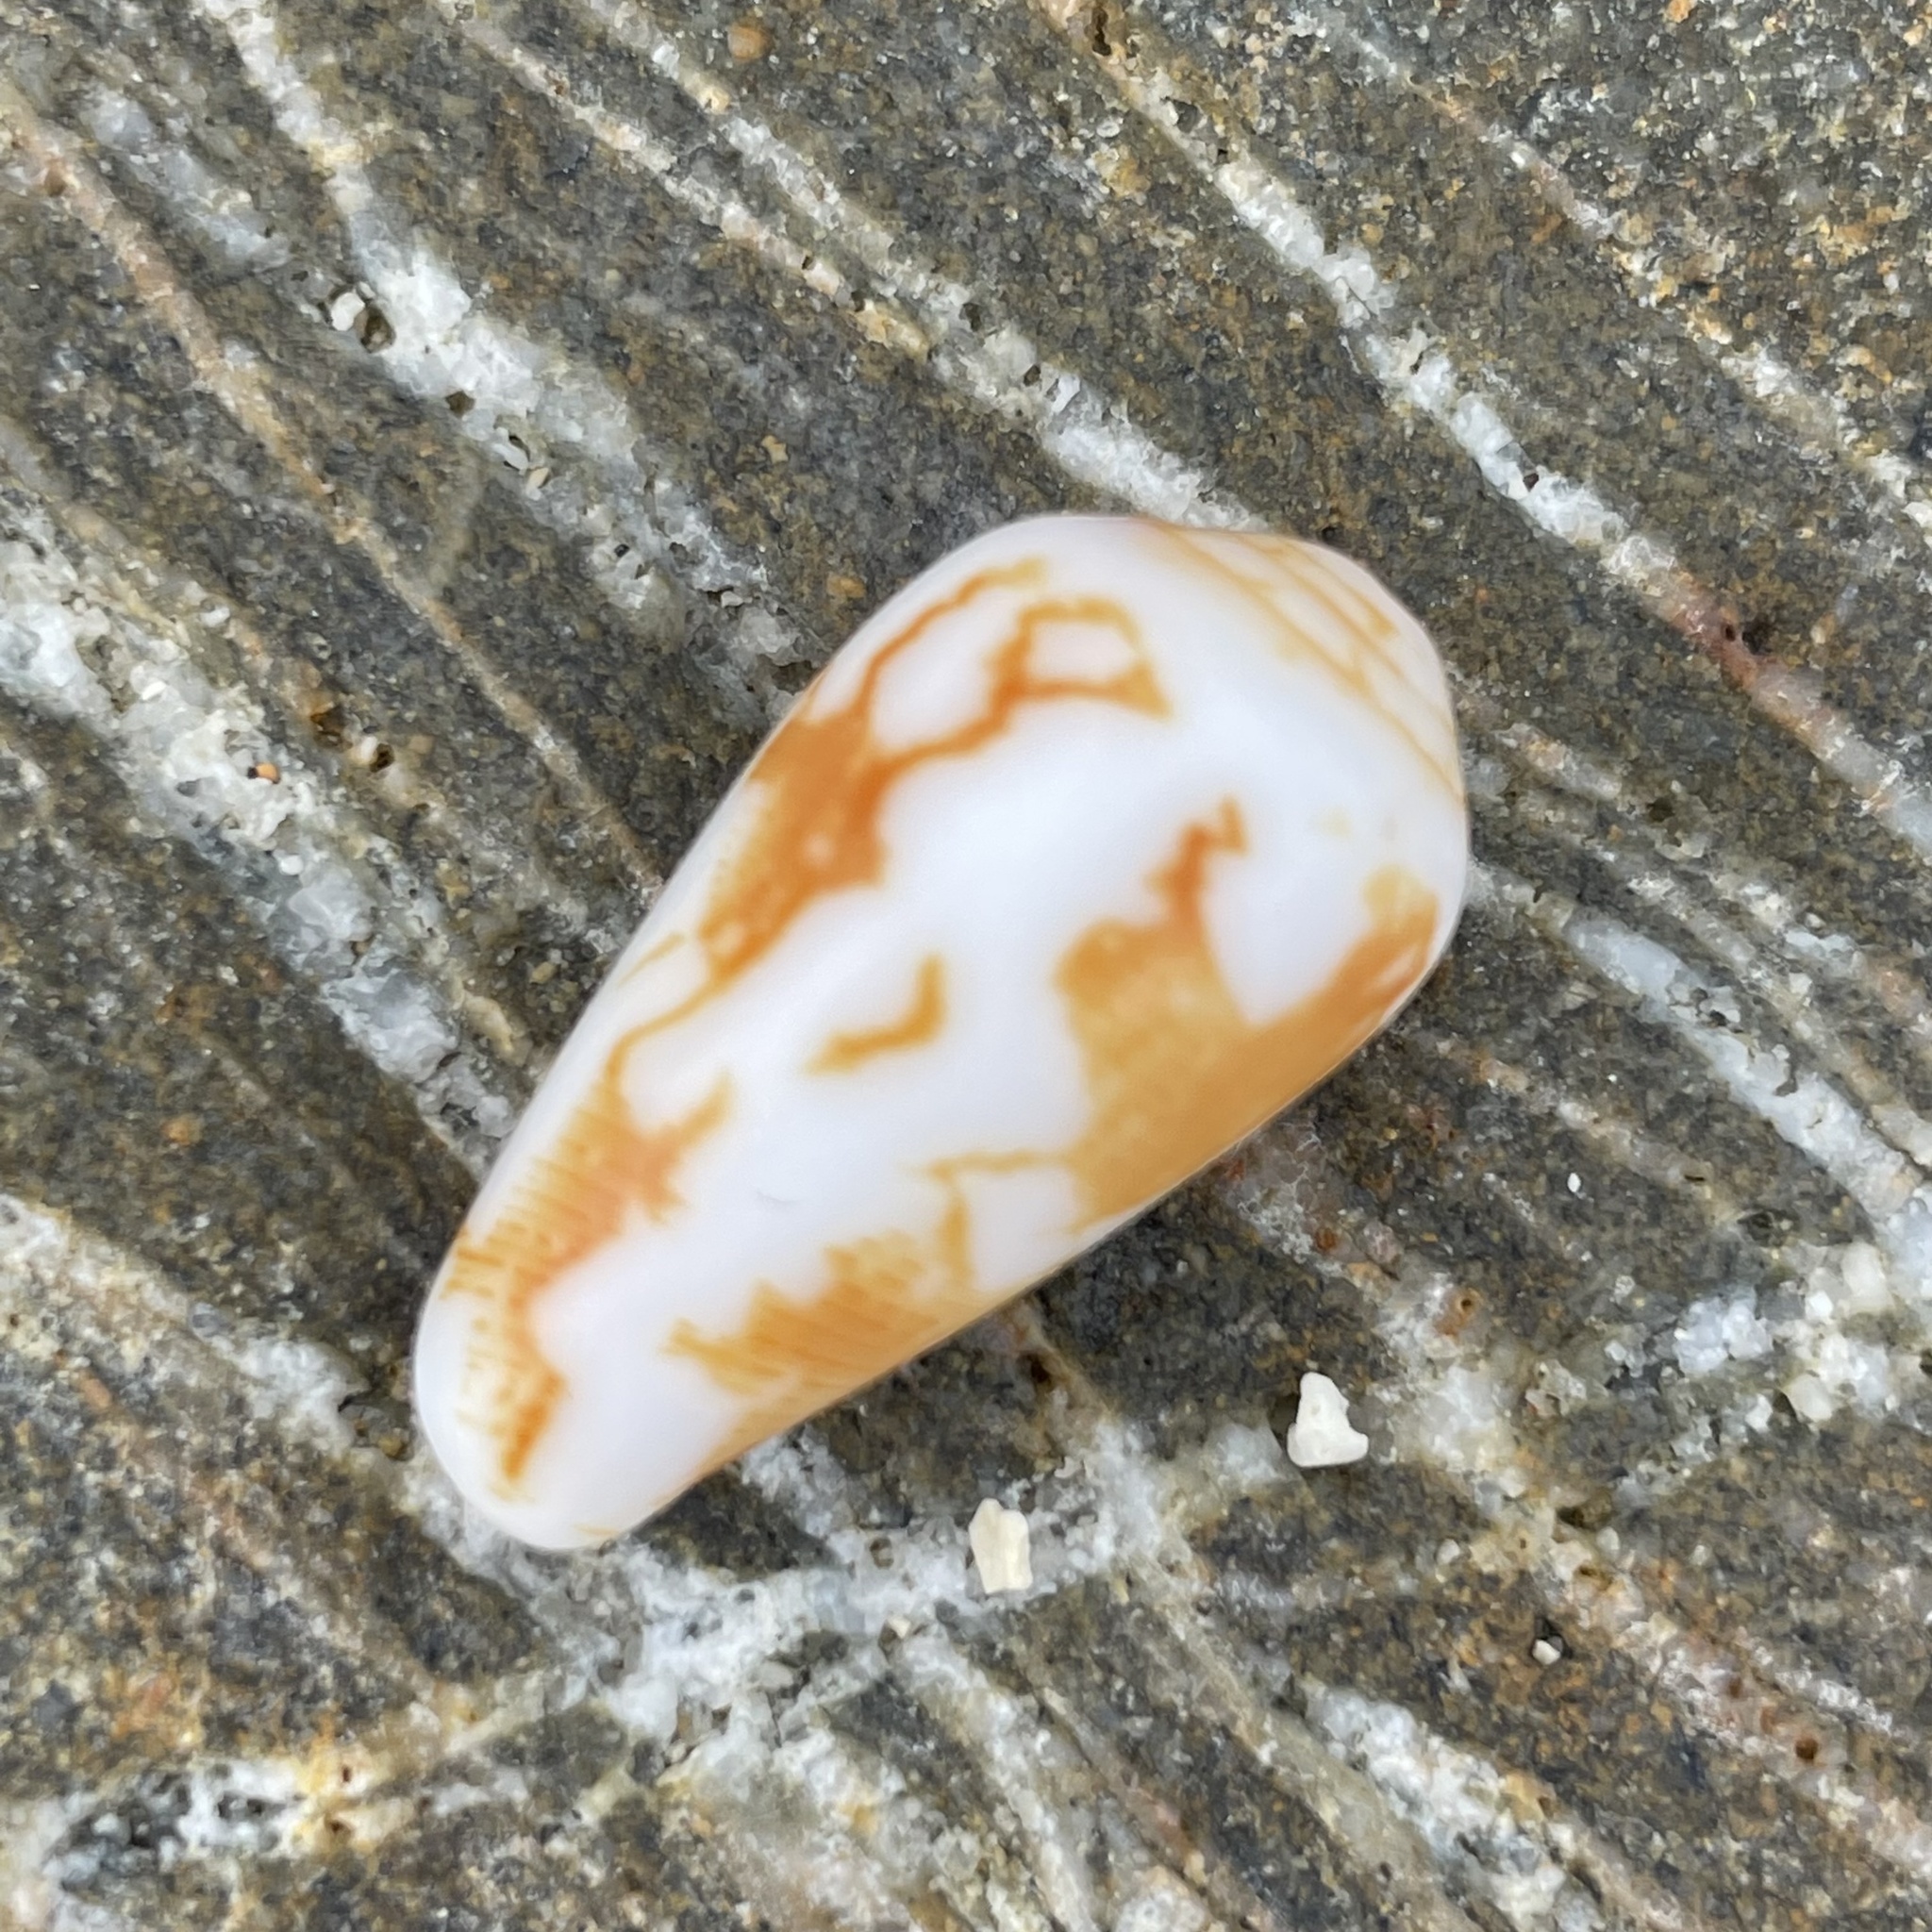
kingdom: Animalia
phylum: Mollusca
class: Gastropoda
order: Neogastropoda
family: Conidae
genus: Conus
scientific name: Conus striatus
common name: Striated cone
